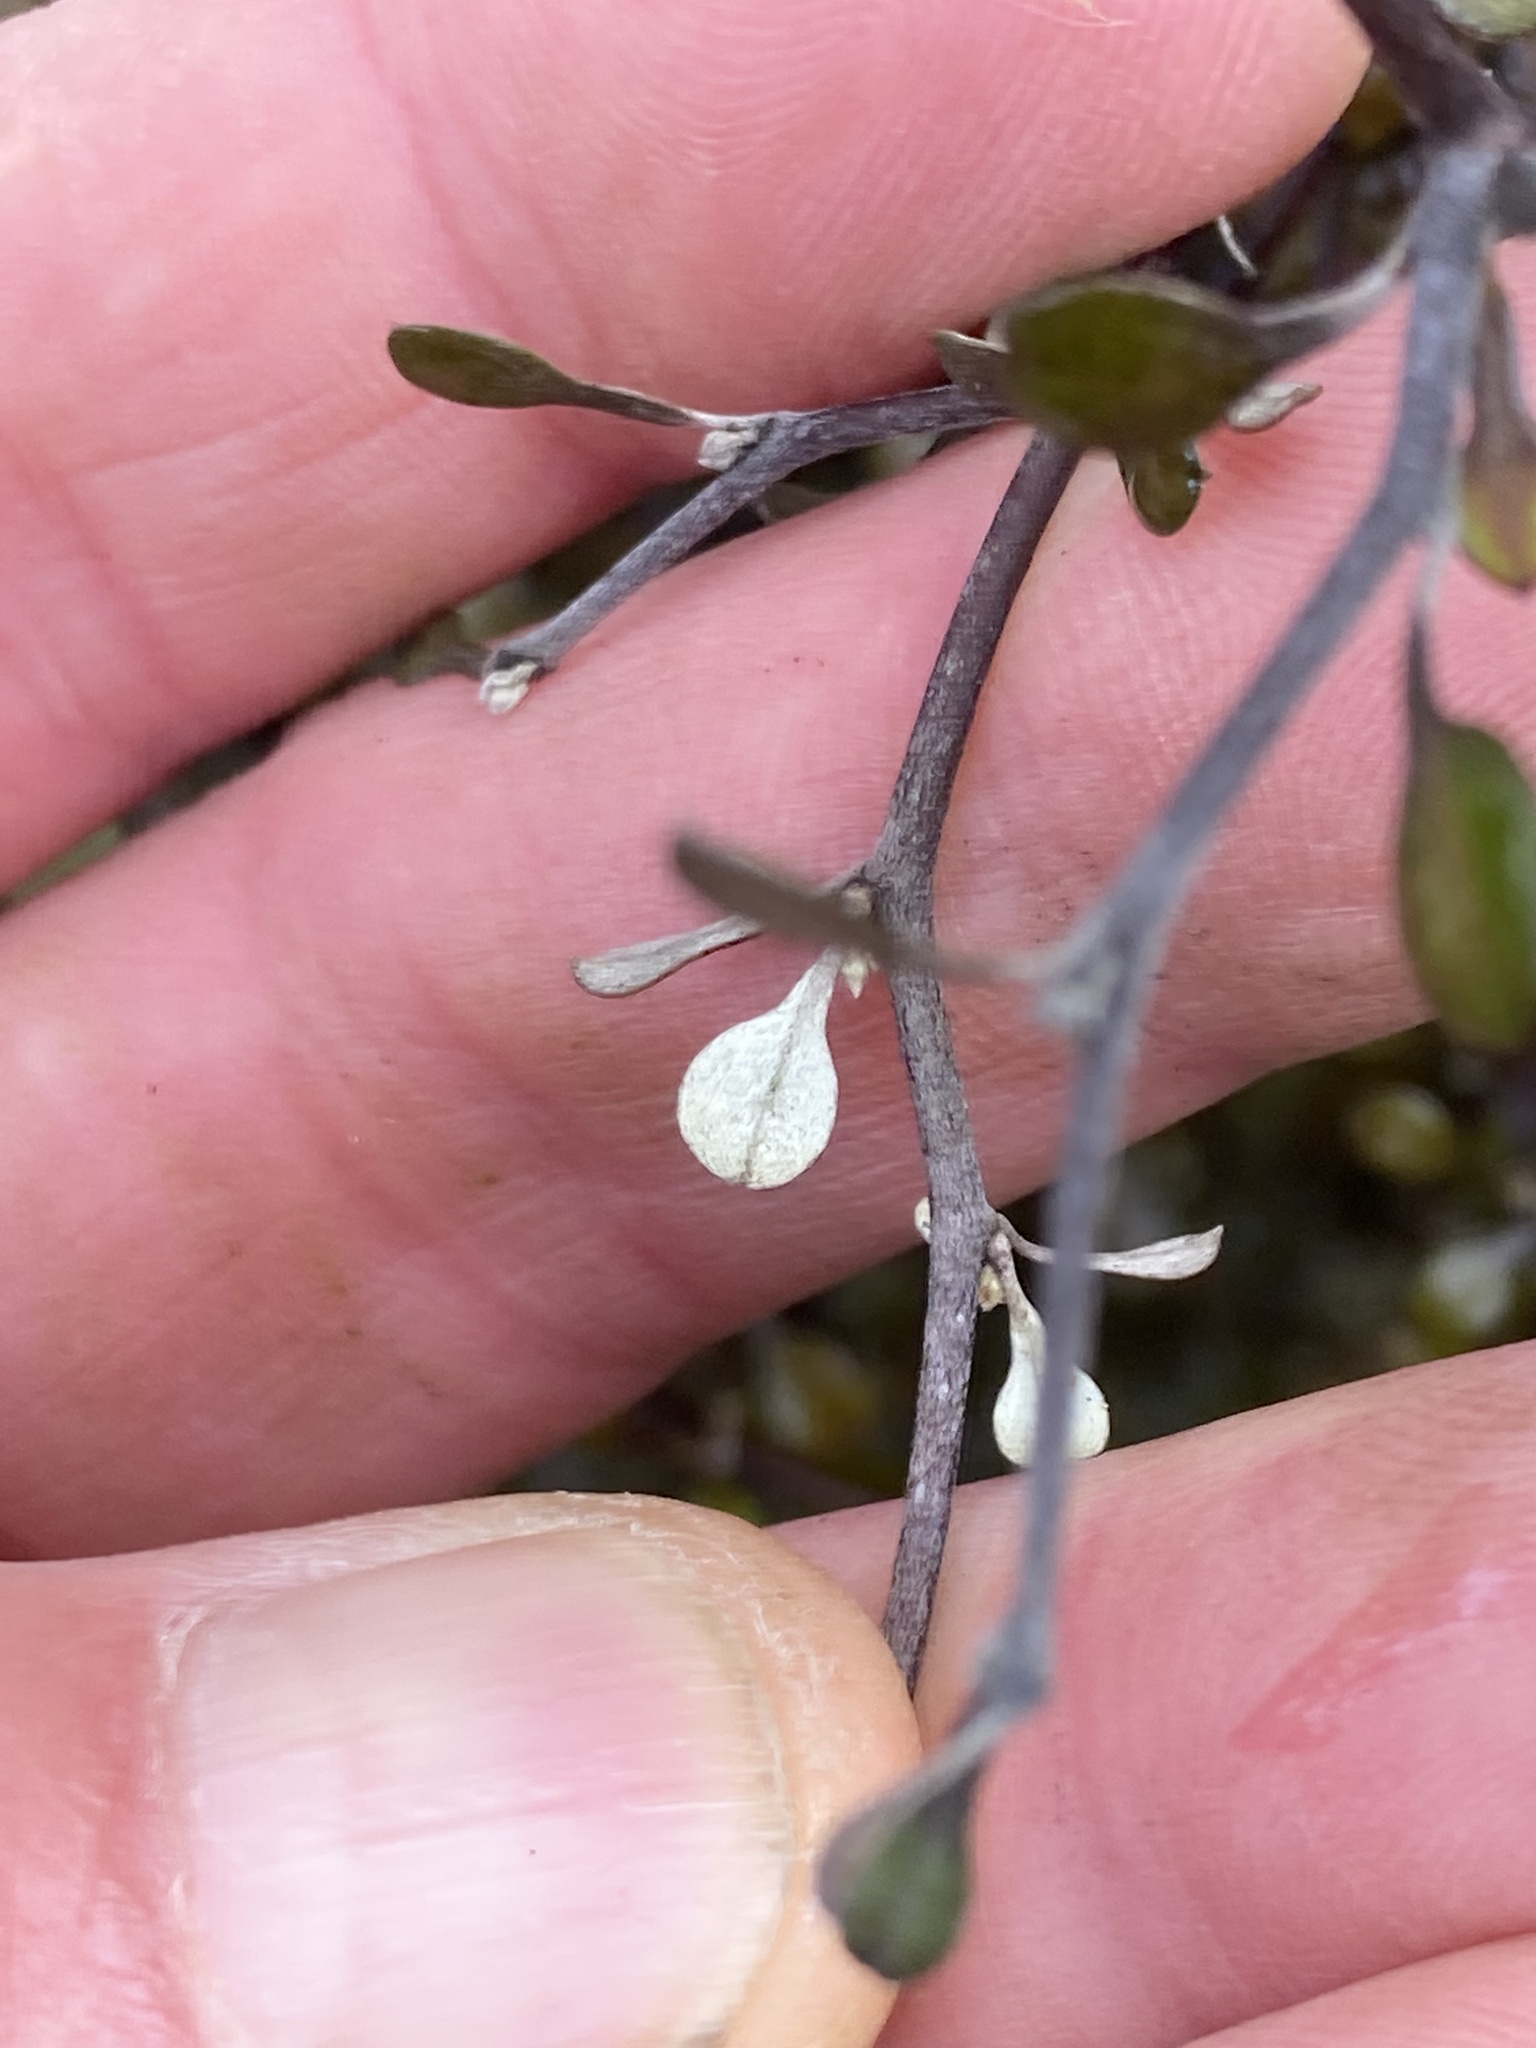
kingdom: Plantae
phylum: Tracheophyta
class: Magnoliopsida
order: Asterales
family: Argophyllaceae
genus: Corokia
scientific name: Corokia cotoneaster
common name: Wire nettingbush
